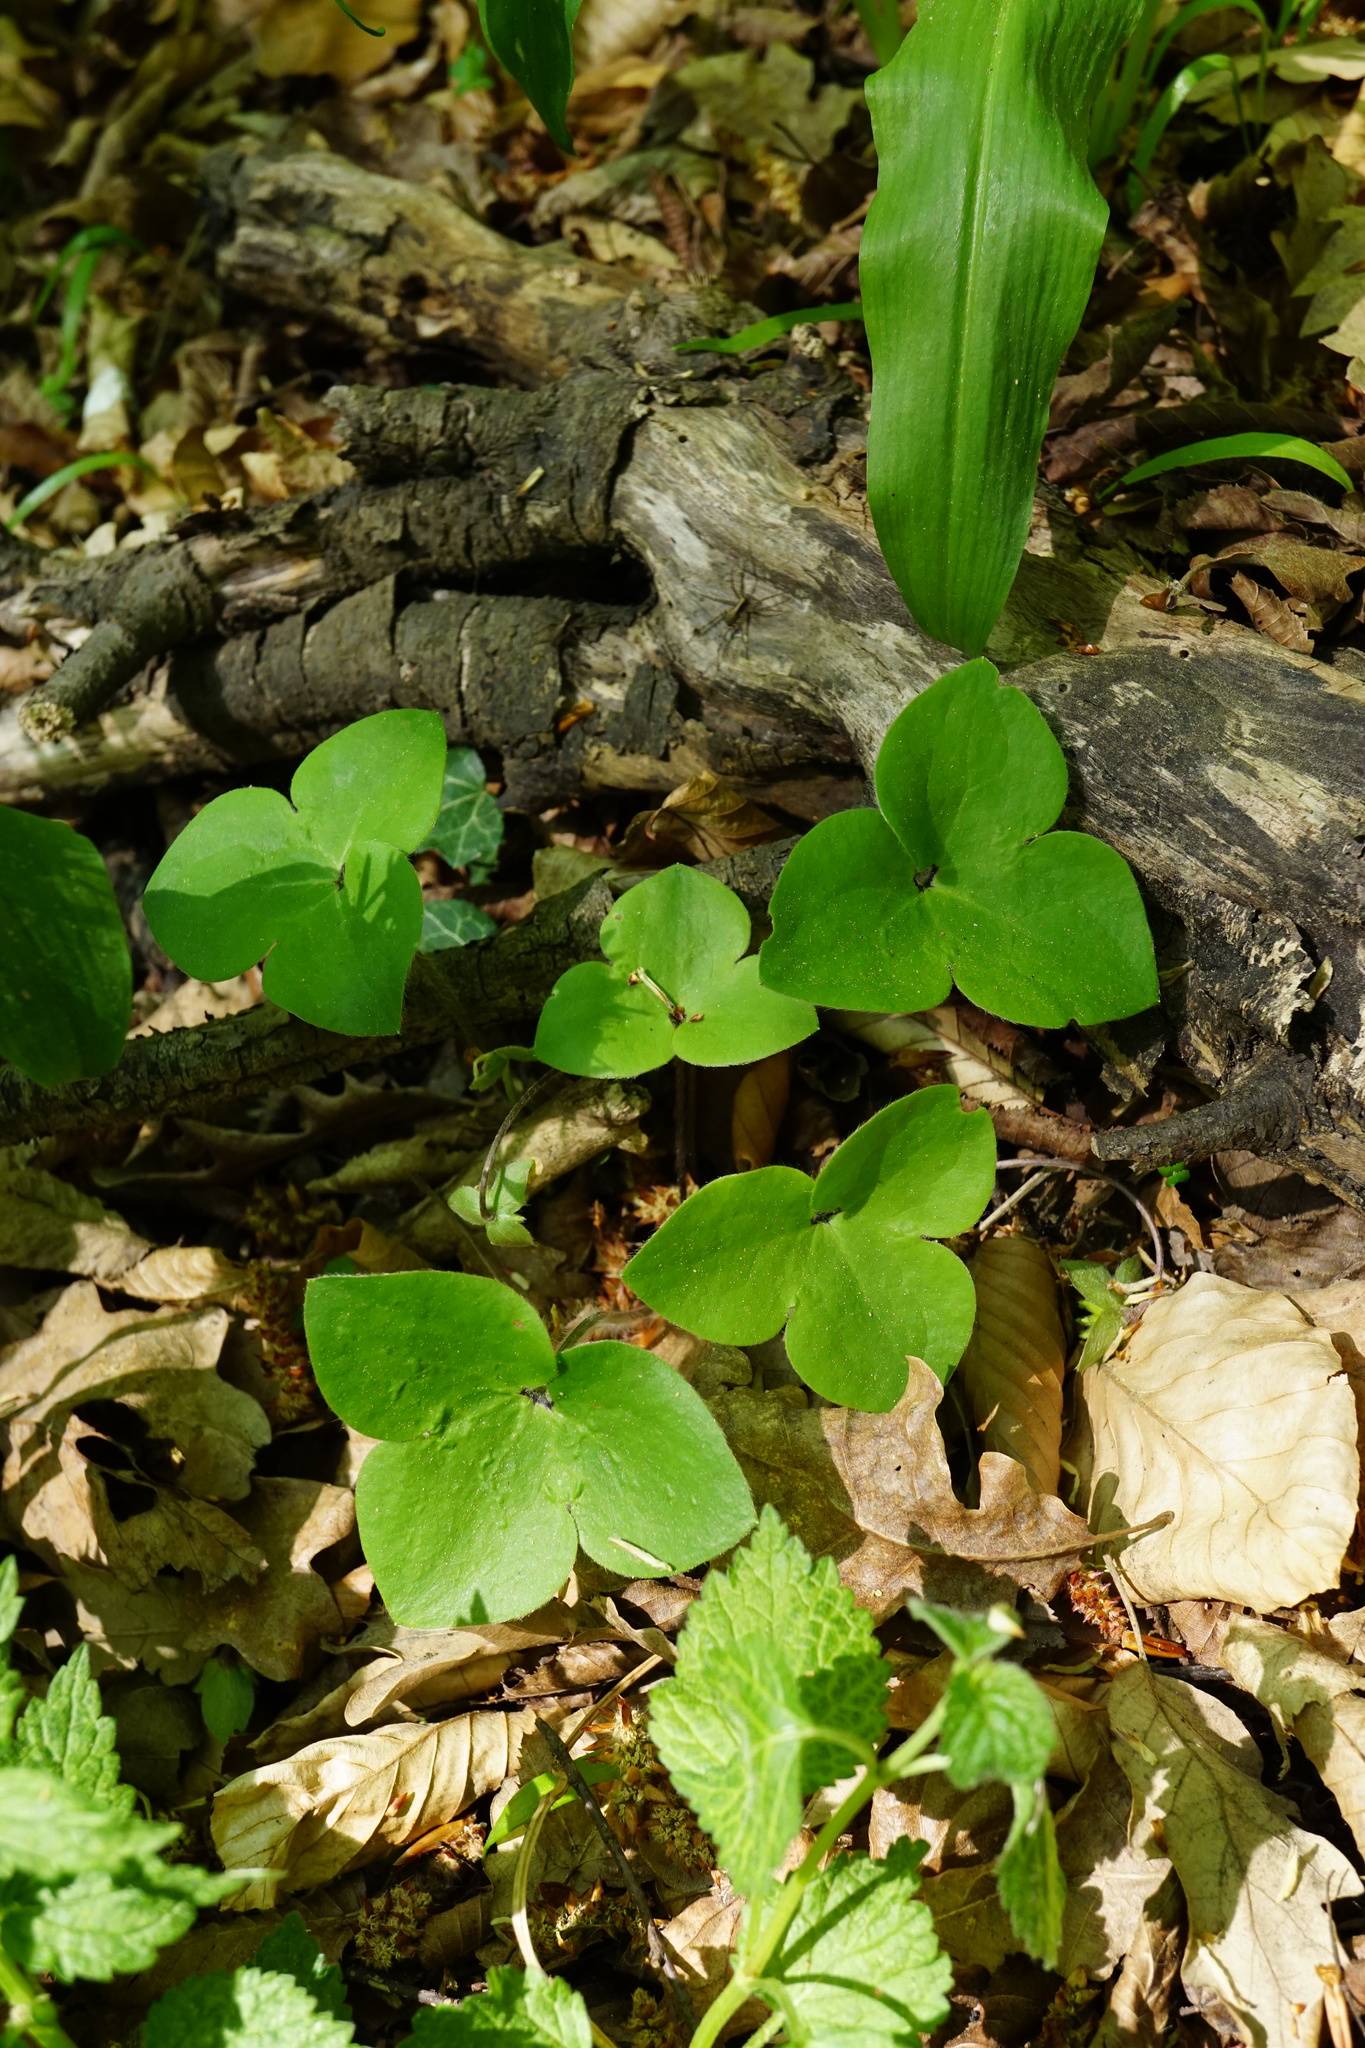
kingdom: Plantae
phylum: Tracheophyta
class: Magnoliopsida
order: Ranunculales
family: Ranunculaceae
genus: Hepatica
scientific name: Hepatica nobilis
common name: Liverleaf
